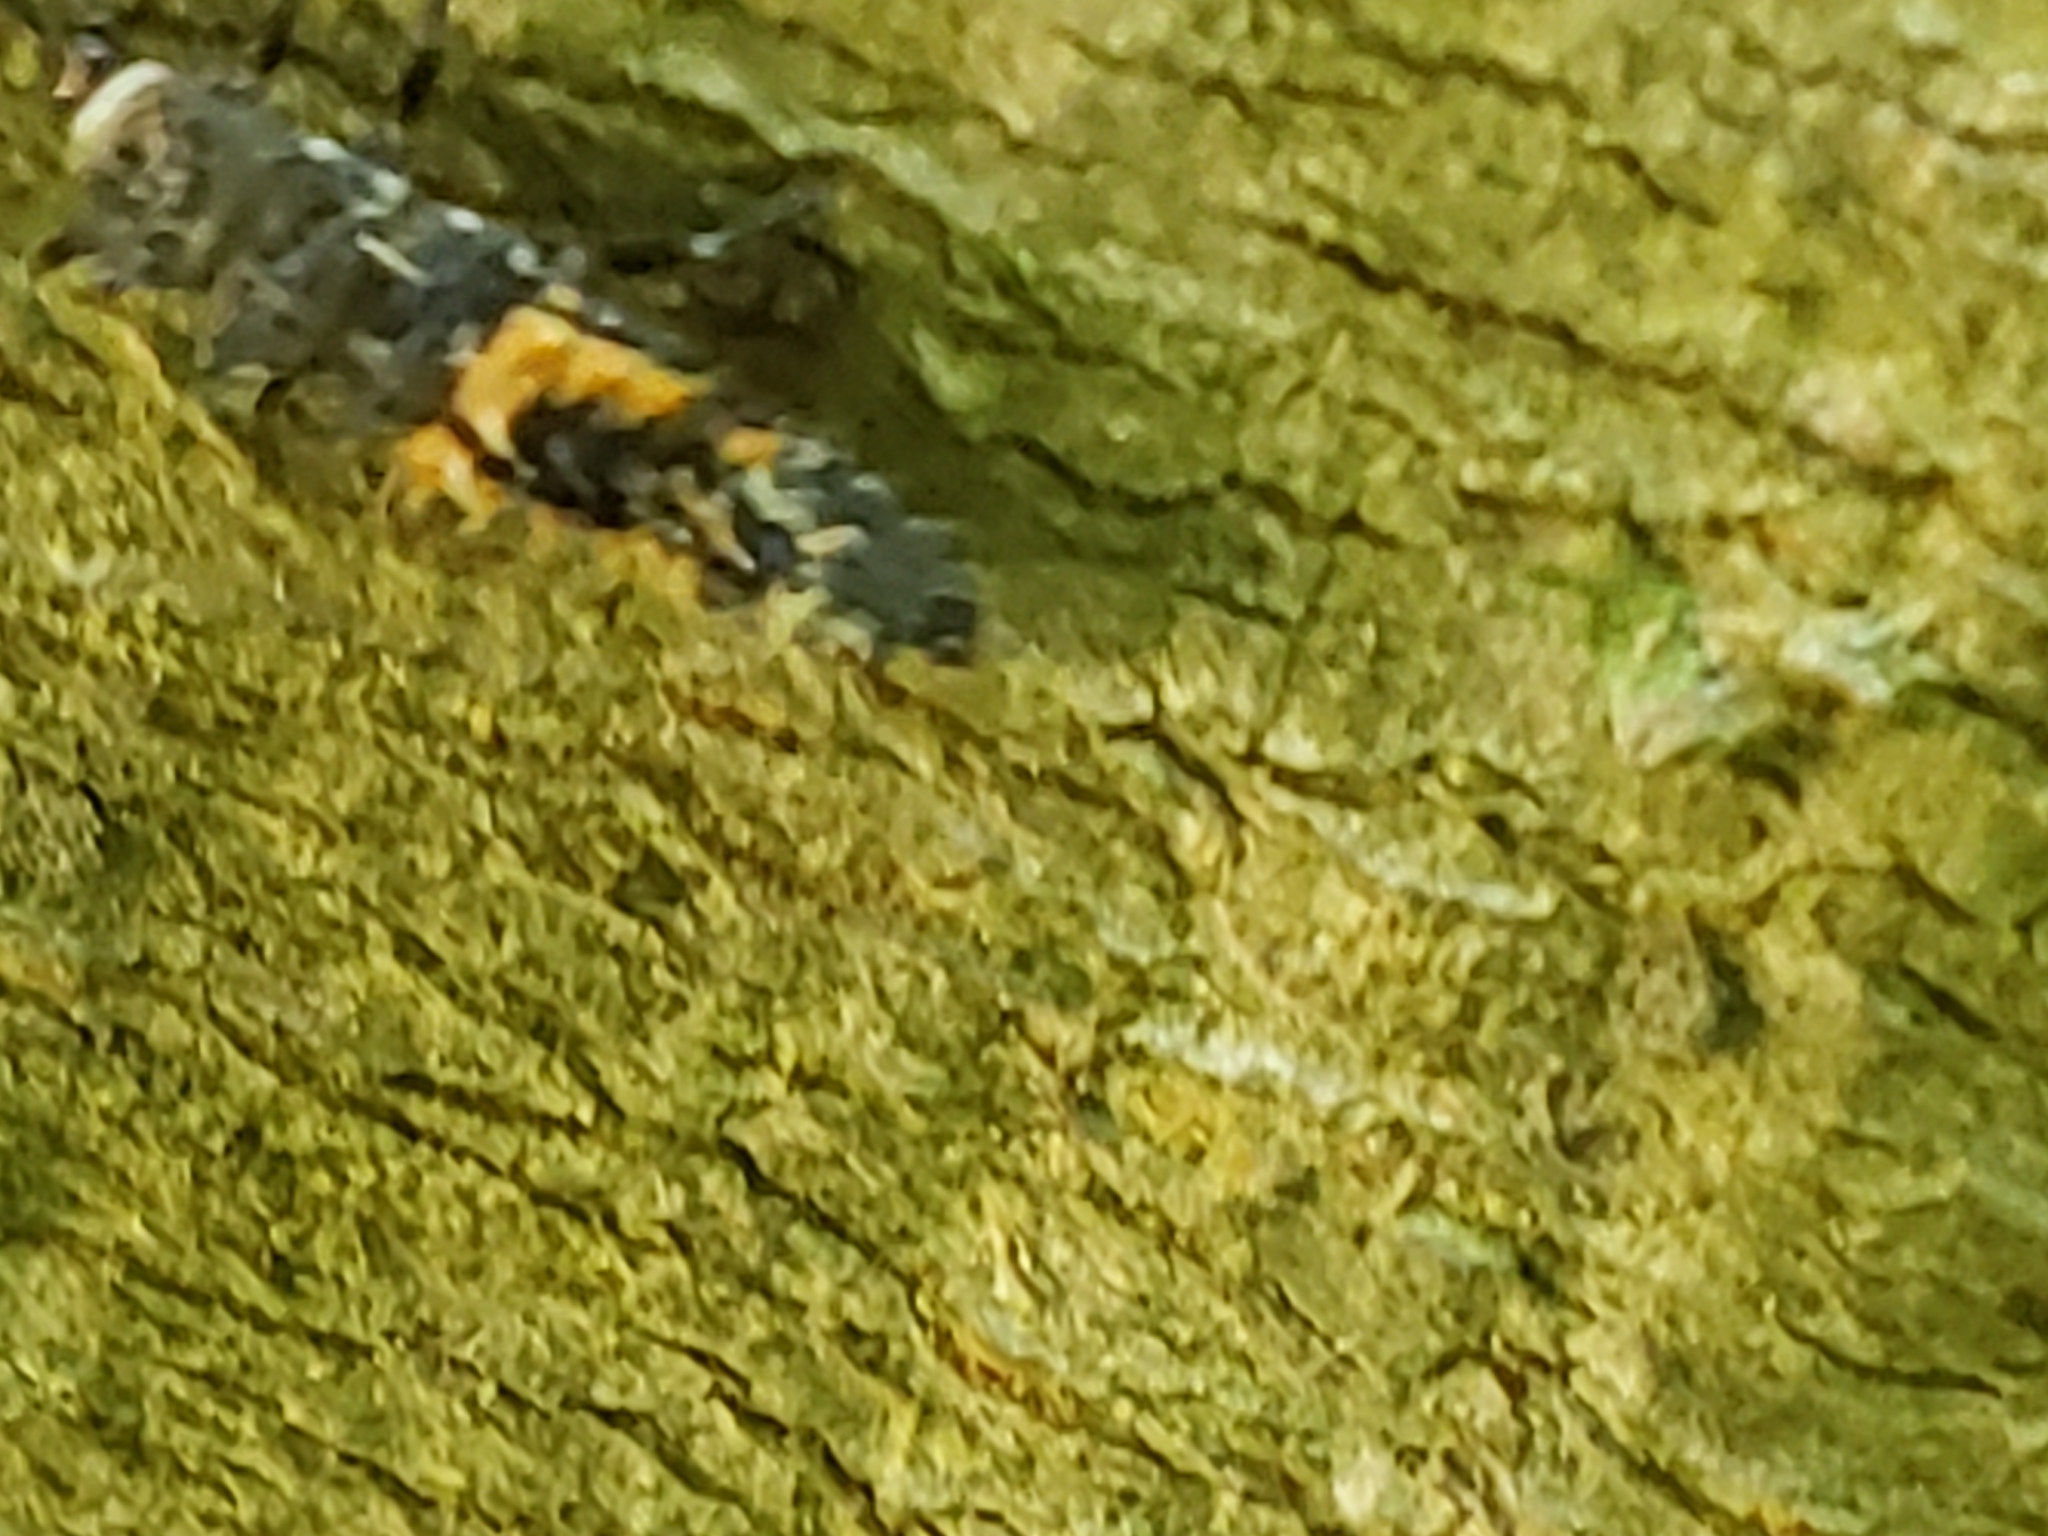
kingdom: Animalia
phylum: Arthropoda
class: Insecta
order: Coleoptera
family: Coccinellidae
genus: Harmonia
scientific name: Harmonia axyridis
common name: Harlequin ladybird
